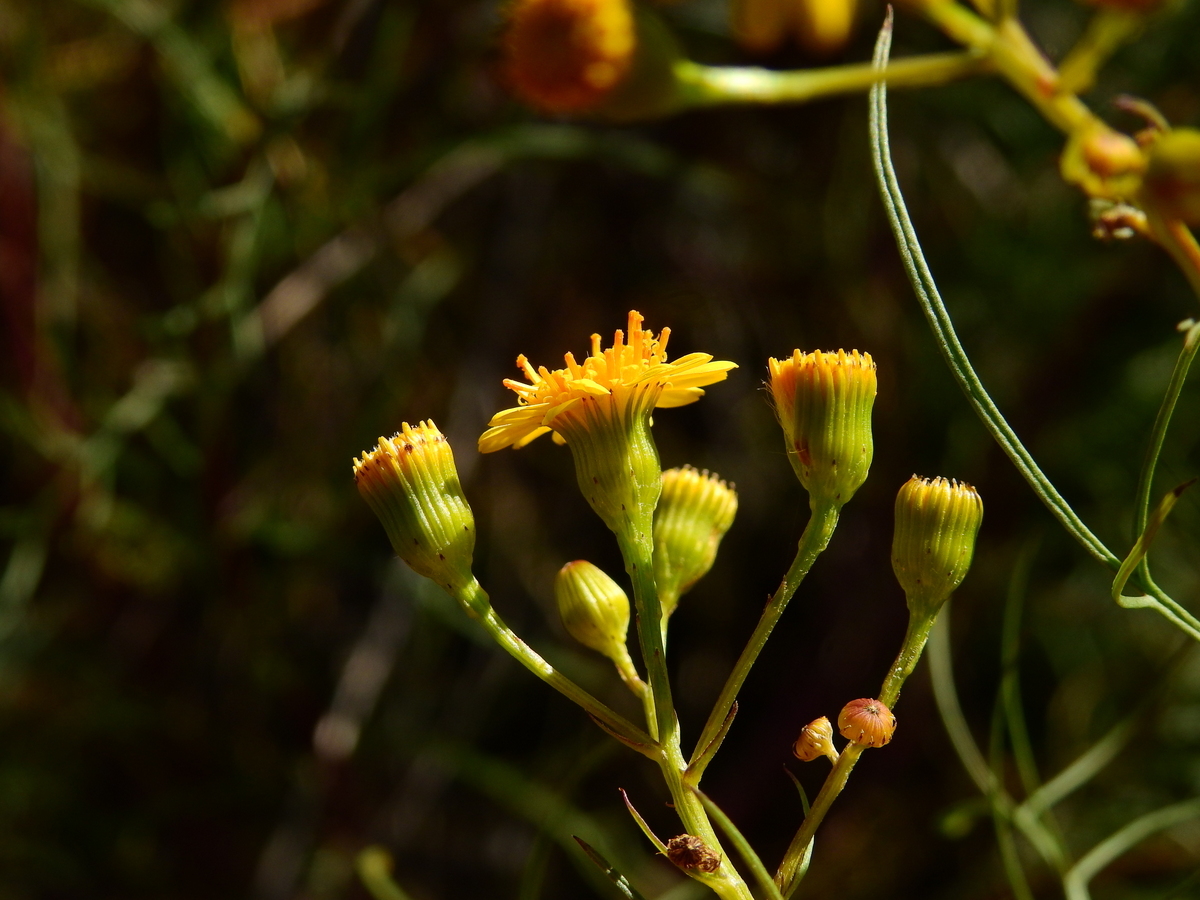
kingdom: Plantae
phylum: Tracheophyta
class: Magnoliopsida
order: Asterales
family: Asteraceae
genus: Senecio
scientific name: Senecio pampeanus
